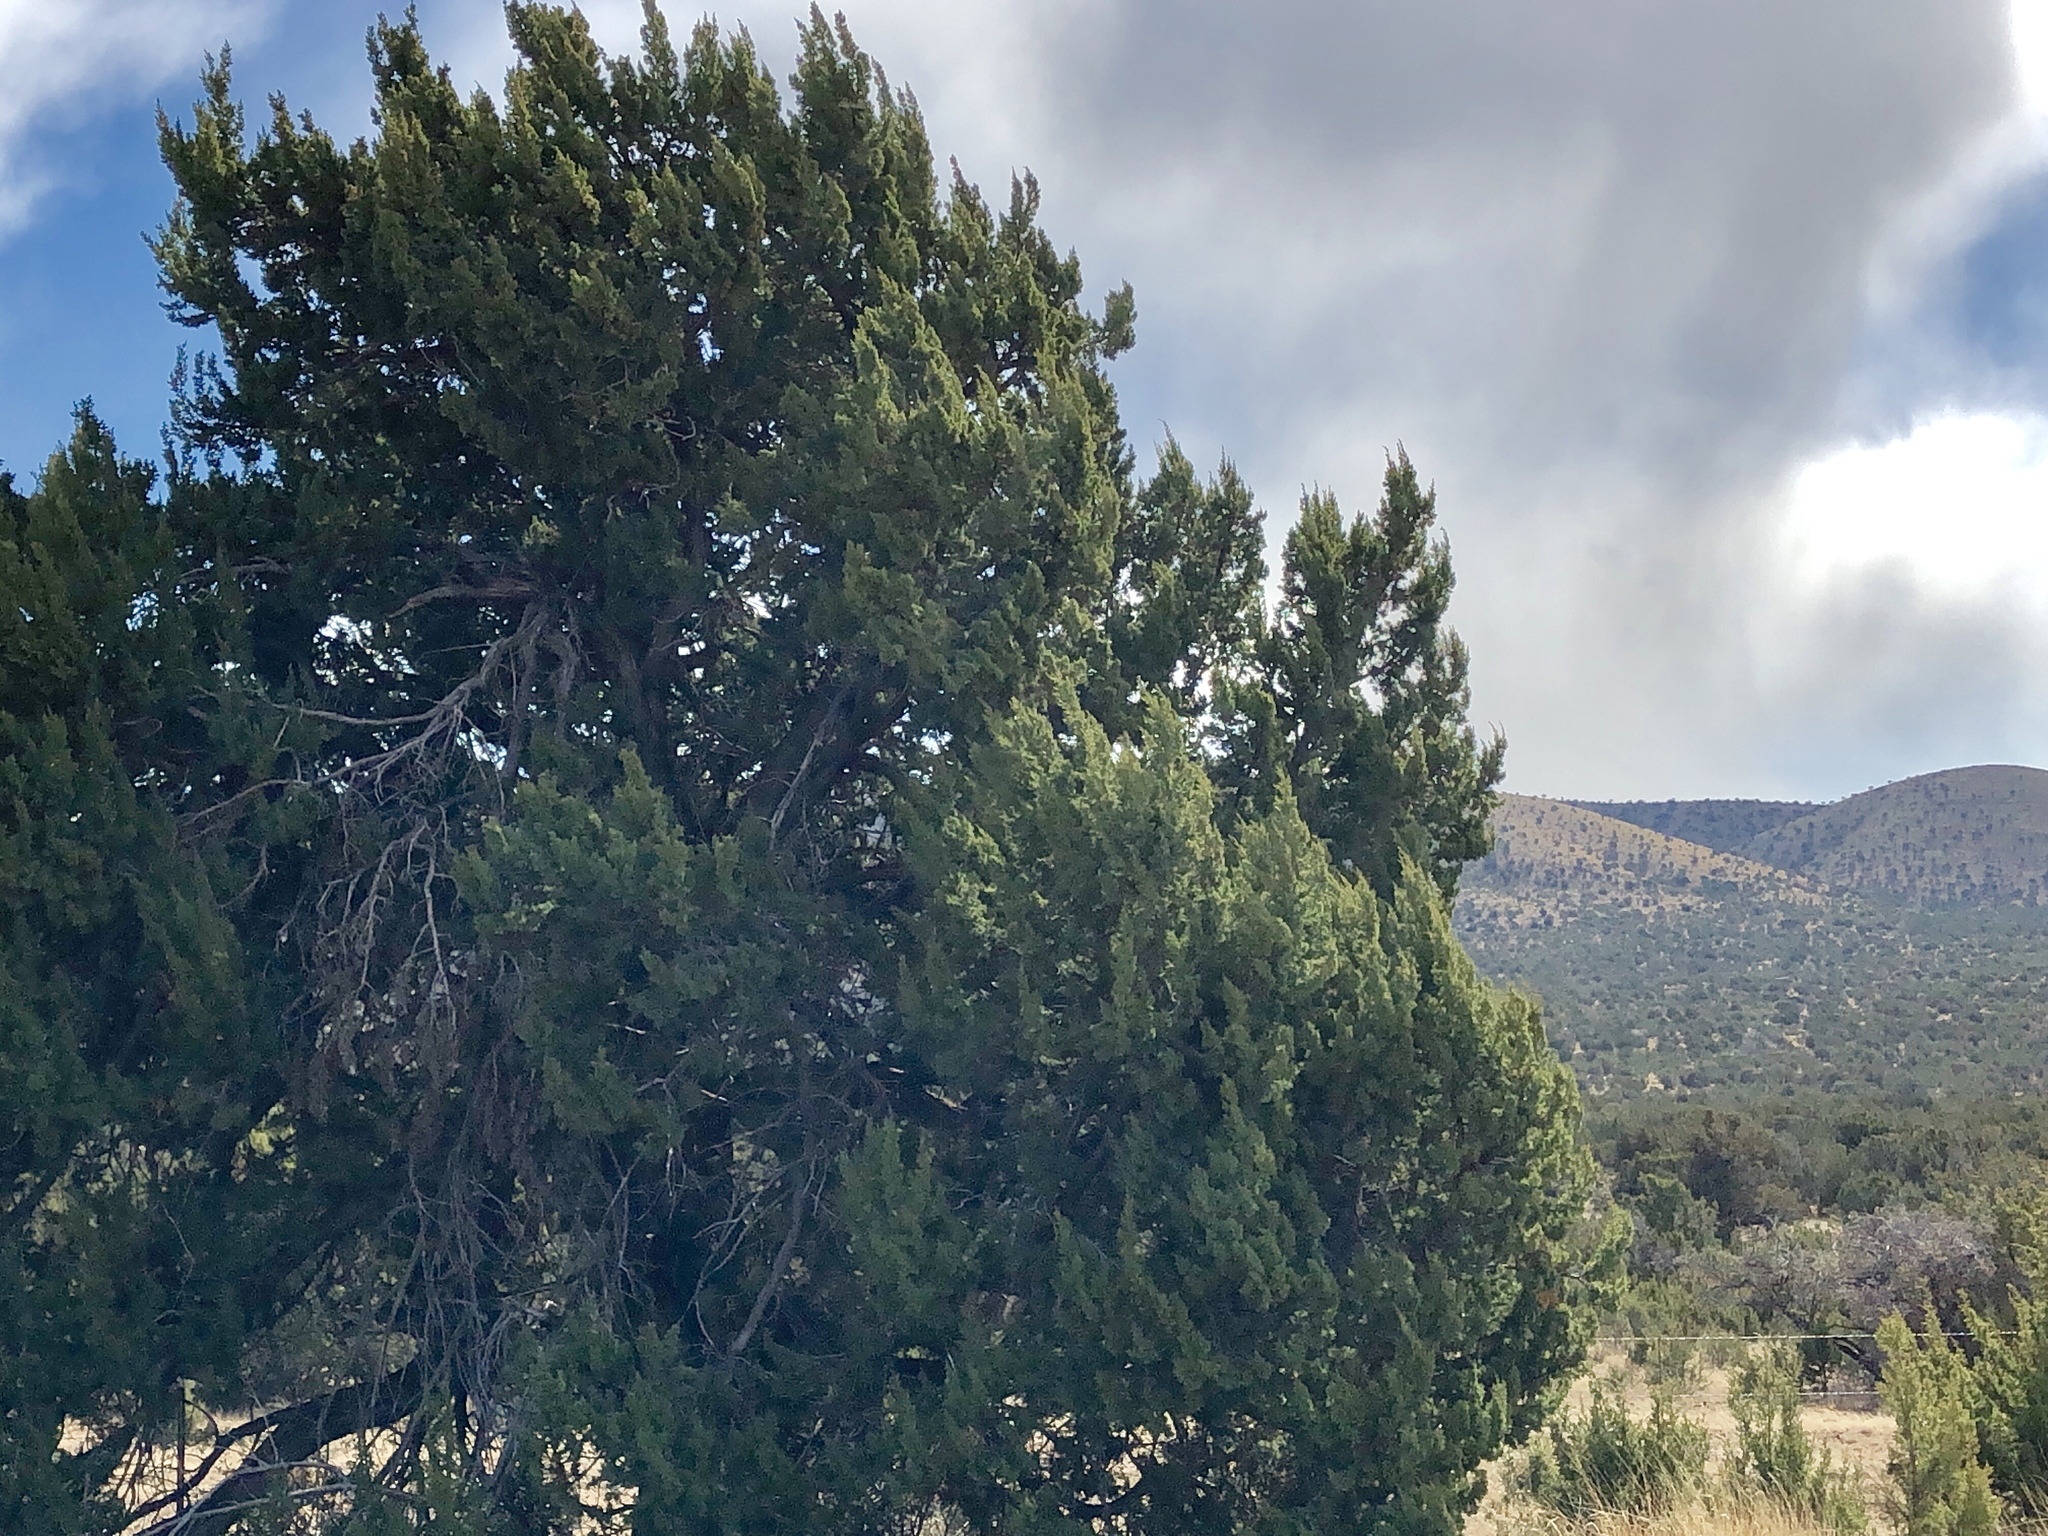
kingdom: Plantae
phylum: Tracheophyta
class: Pinopsida
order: Pinales
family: Cupressaceae
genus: Juniperus
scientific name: Juniperus deppeana
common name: Alligator juniper
